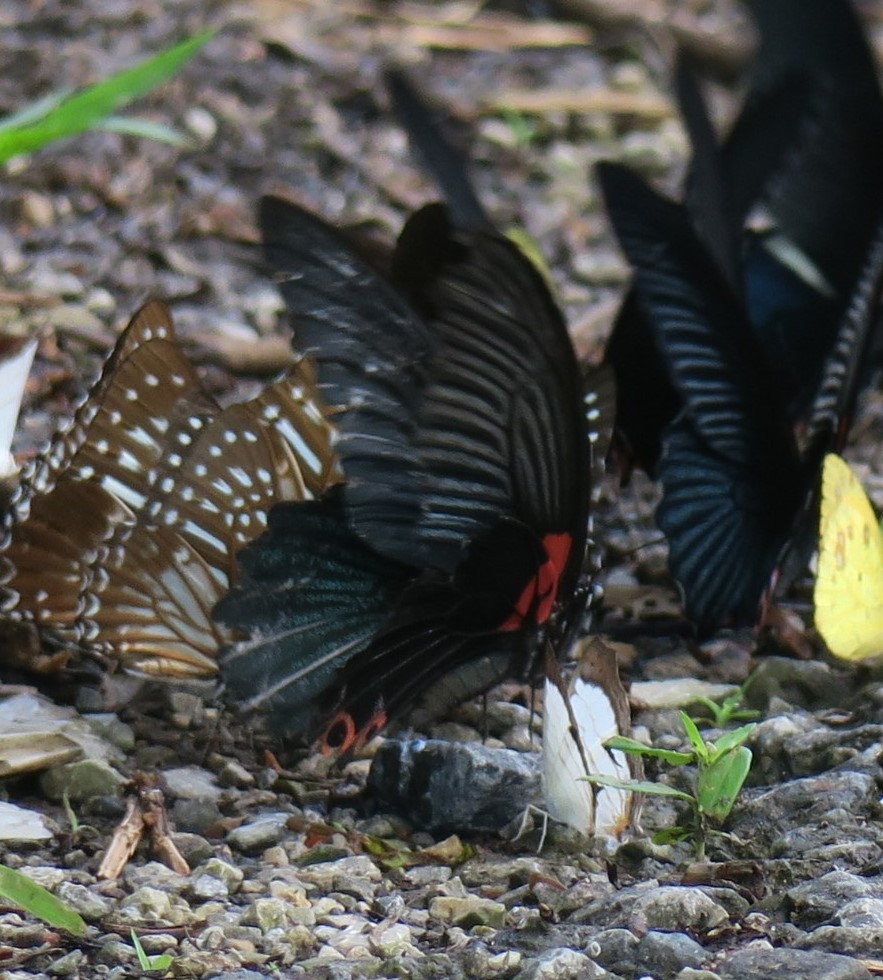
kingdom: Animalia
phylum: Arthropoda
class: Insecta
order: Lepidoptera
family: Papilionidae
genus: Papilio
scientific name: Papilio memnon
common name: Great mormon
